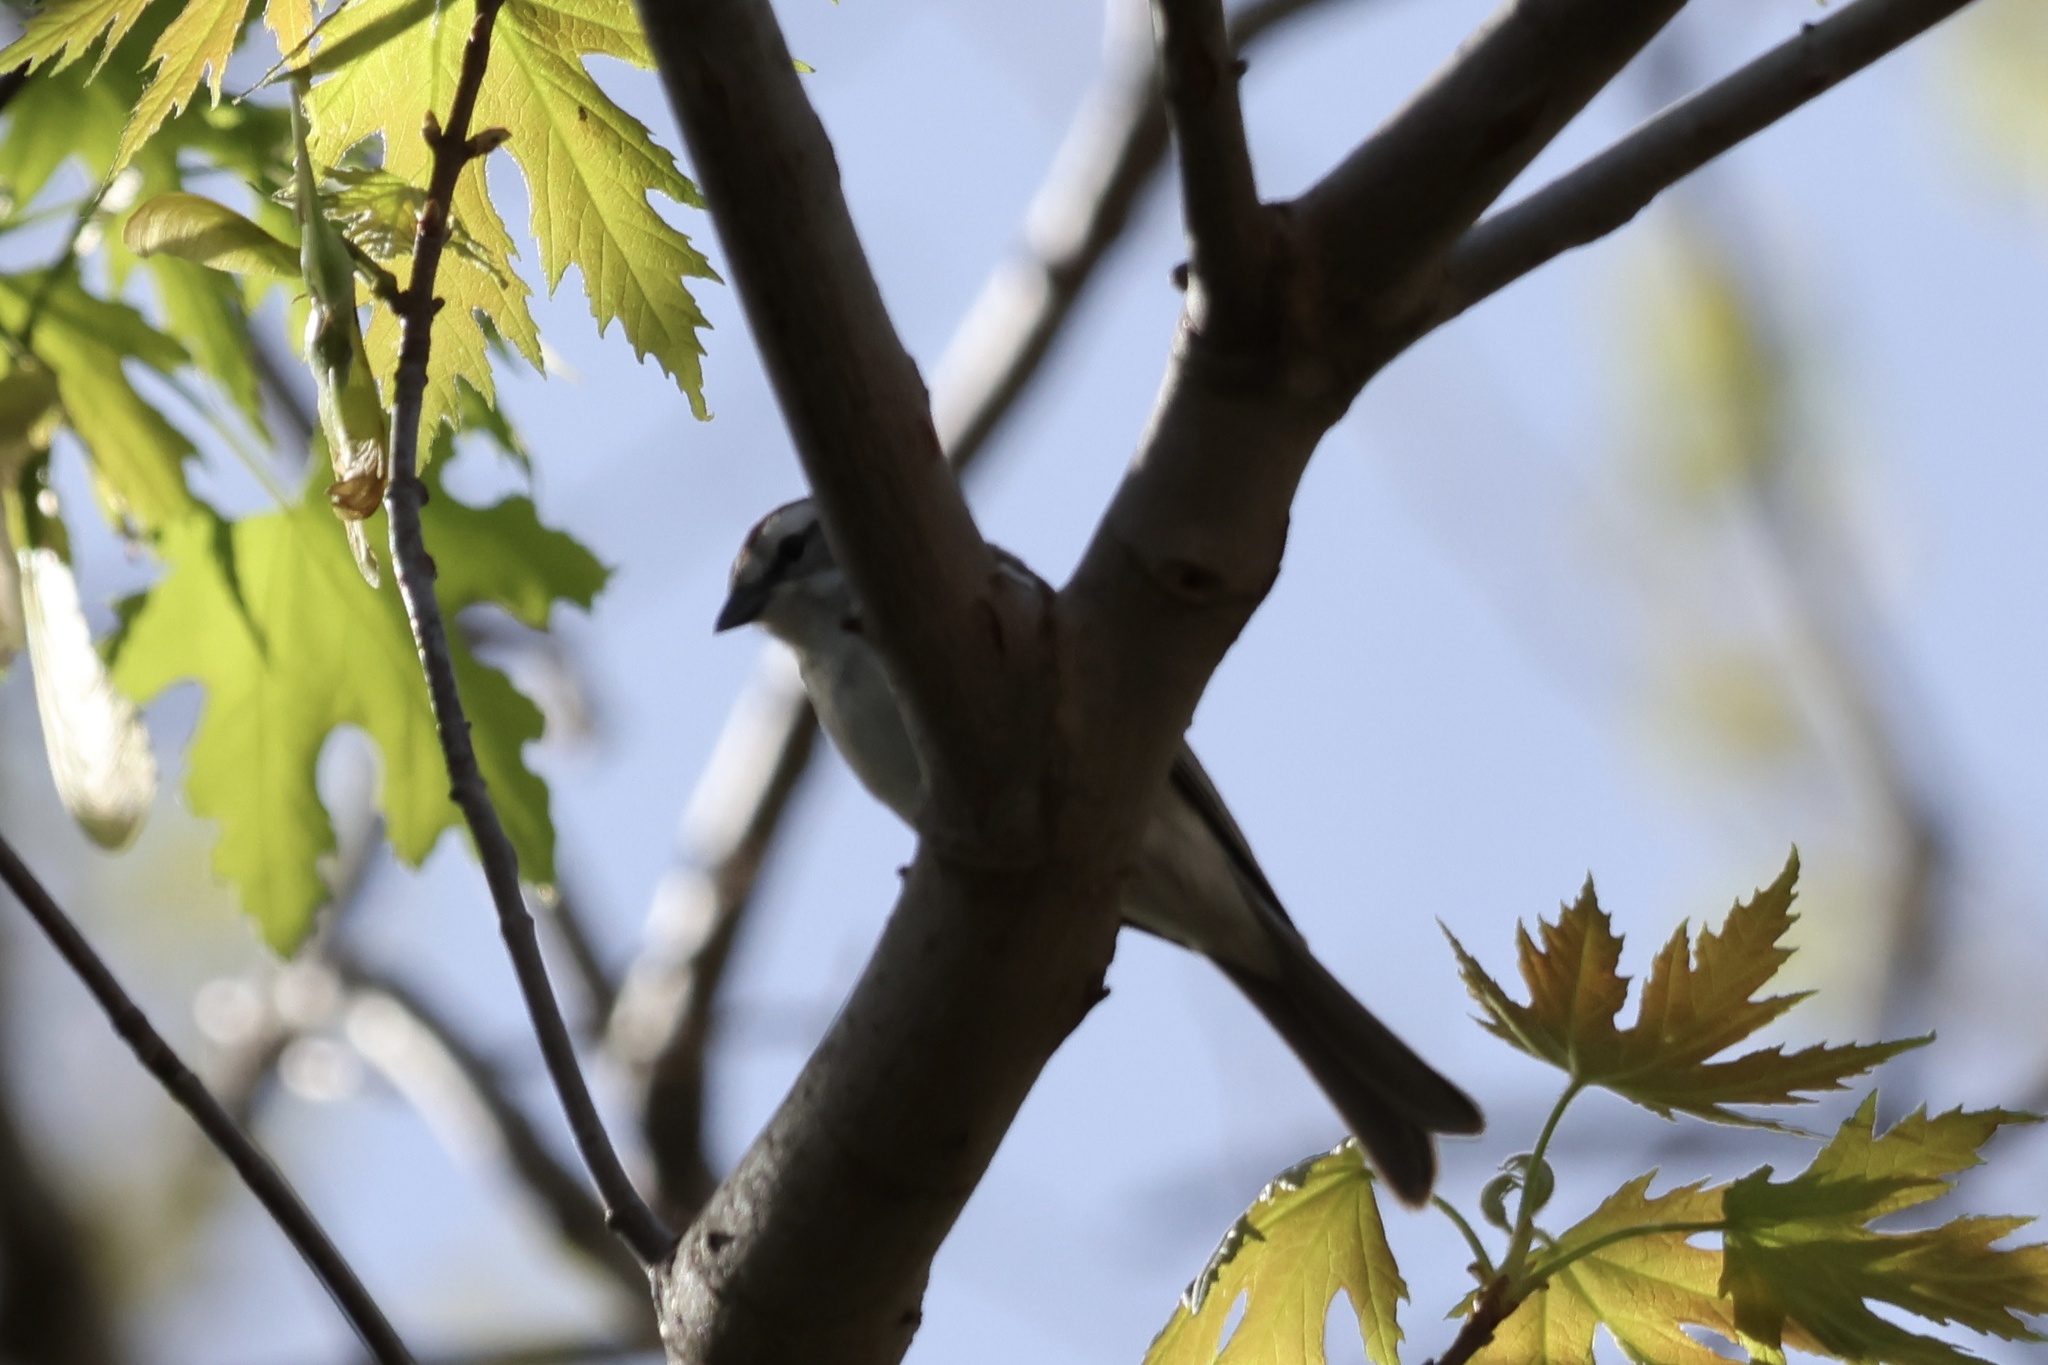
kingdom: Animalia
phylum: Chordata
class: Aves
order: Passeriformes
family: Passerellidae
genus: Spizella
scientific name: Spizella passerina
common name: Chipping sparrow
